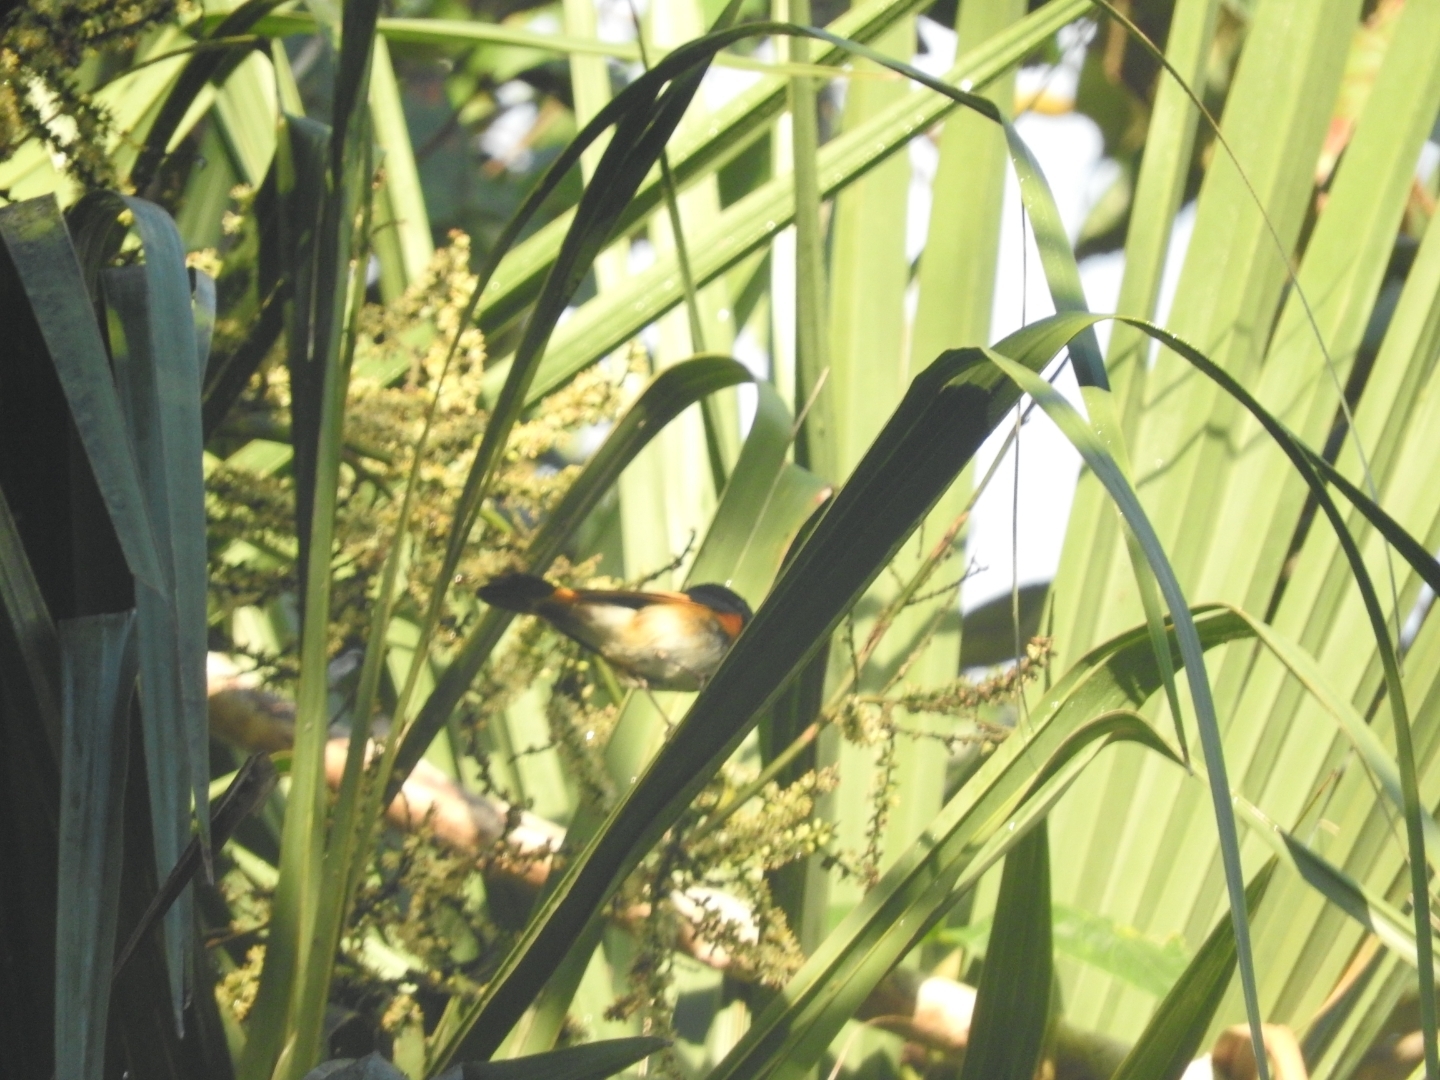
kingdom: Animalia
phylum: Chordata
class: Aves
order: Passeriformes
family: Parulidae
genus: Setophaga
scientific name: Setophaga ruticilla
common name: American redstart
